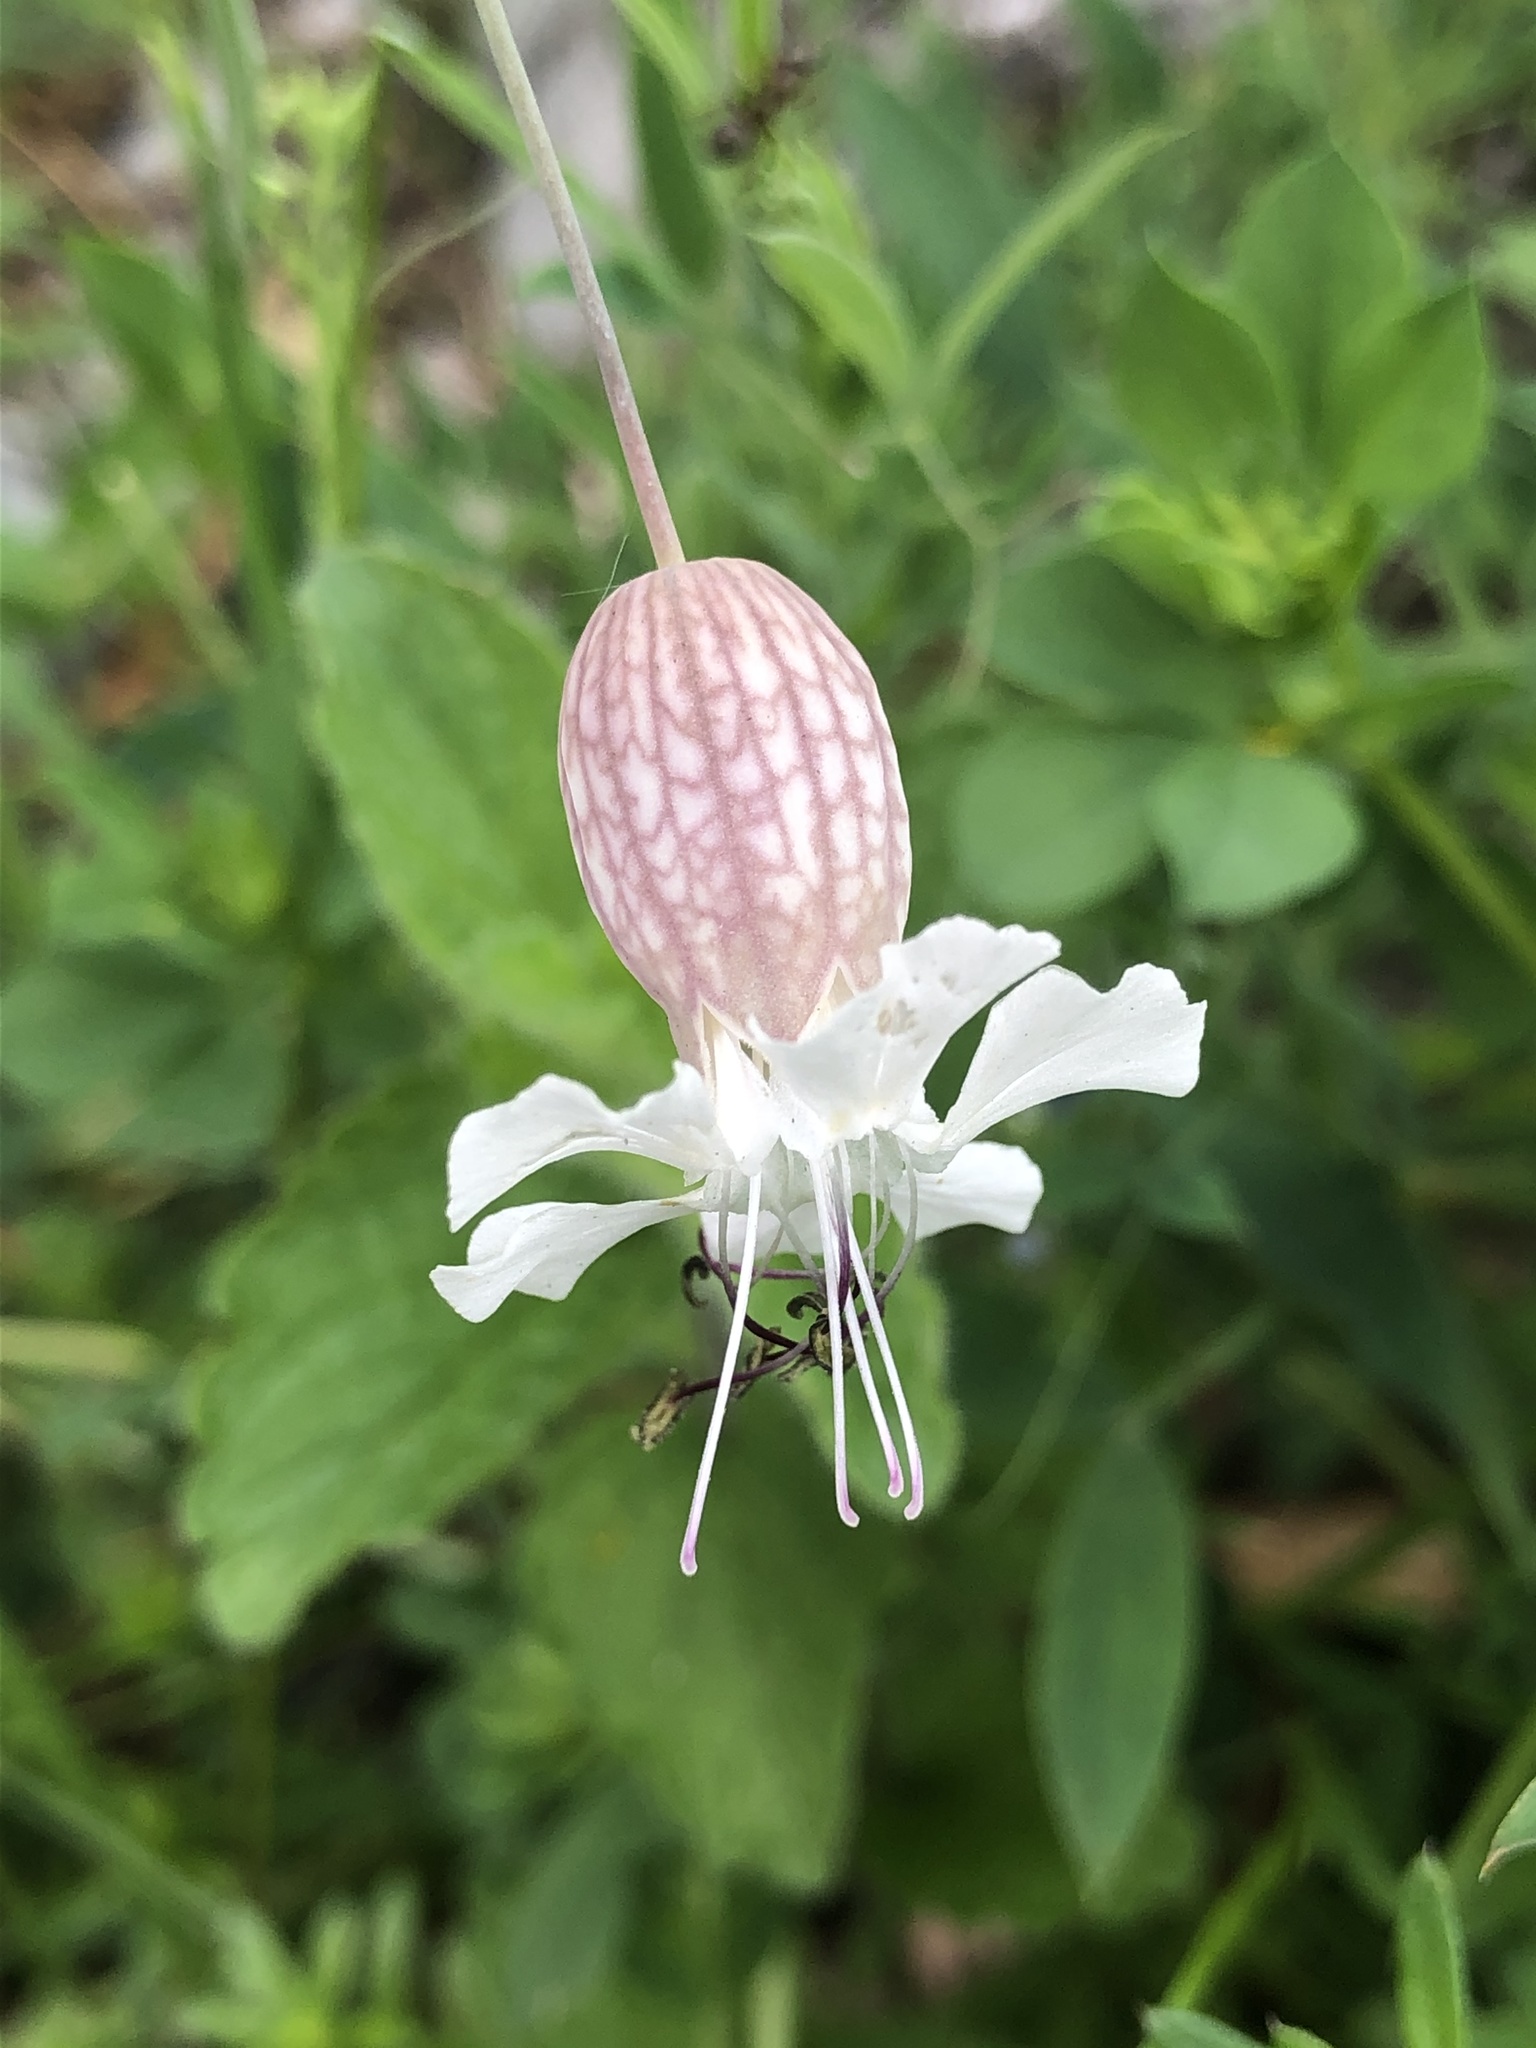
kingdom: Plantae
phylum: Tracheophyta
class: Magnoliopsida
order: Caryophyllales
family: Caryophyllaceae
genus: Silene
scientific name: Silene vulgaris
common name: Bladder campion
